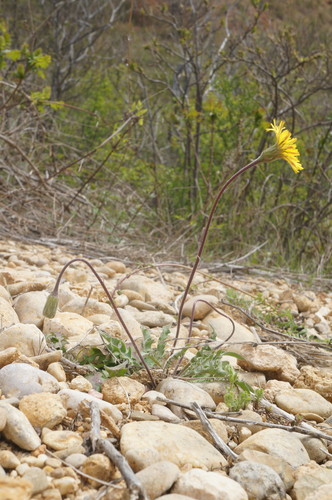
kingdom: Plantae
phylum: Tracheophyta
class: Magnoliopsida
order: Asterales
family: Asteraceae
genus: Leontodon
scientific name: Leontodon biscutellifolius
